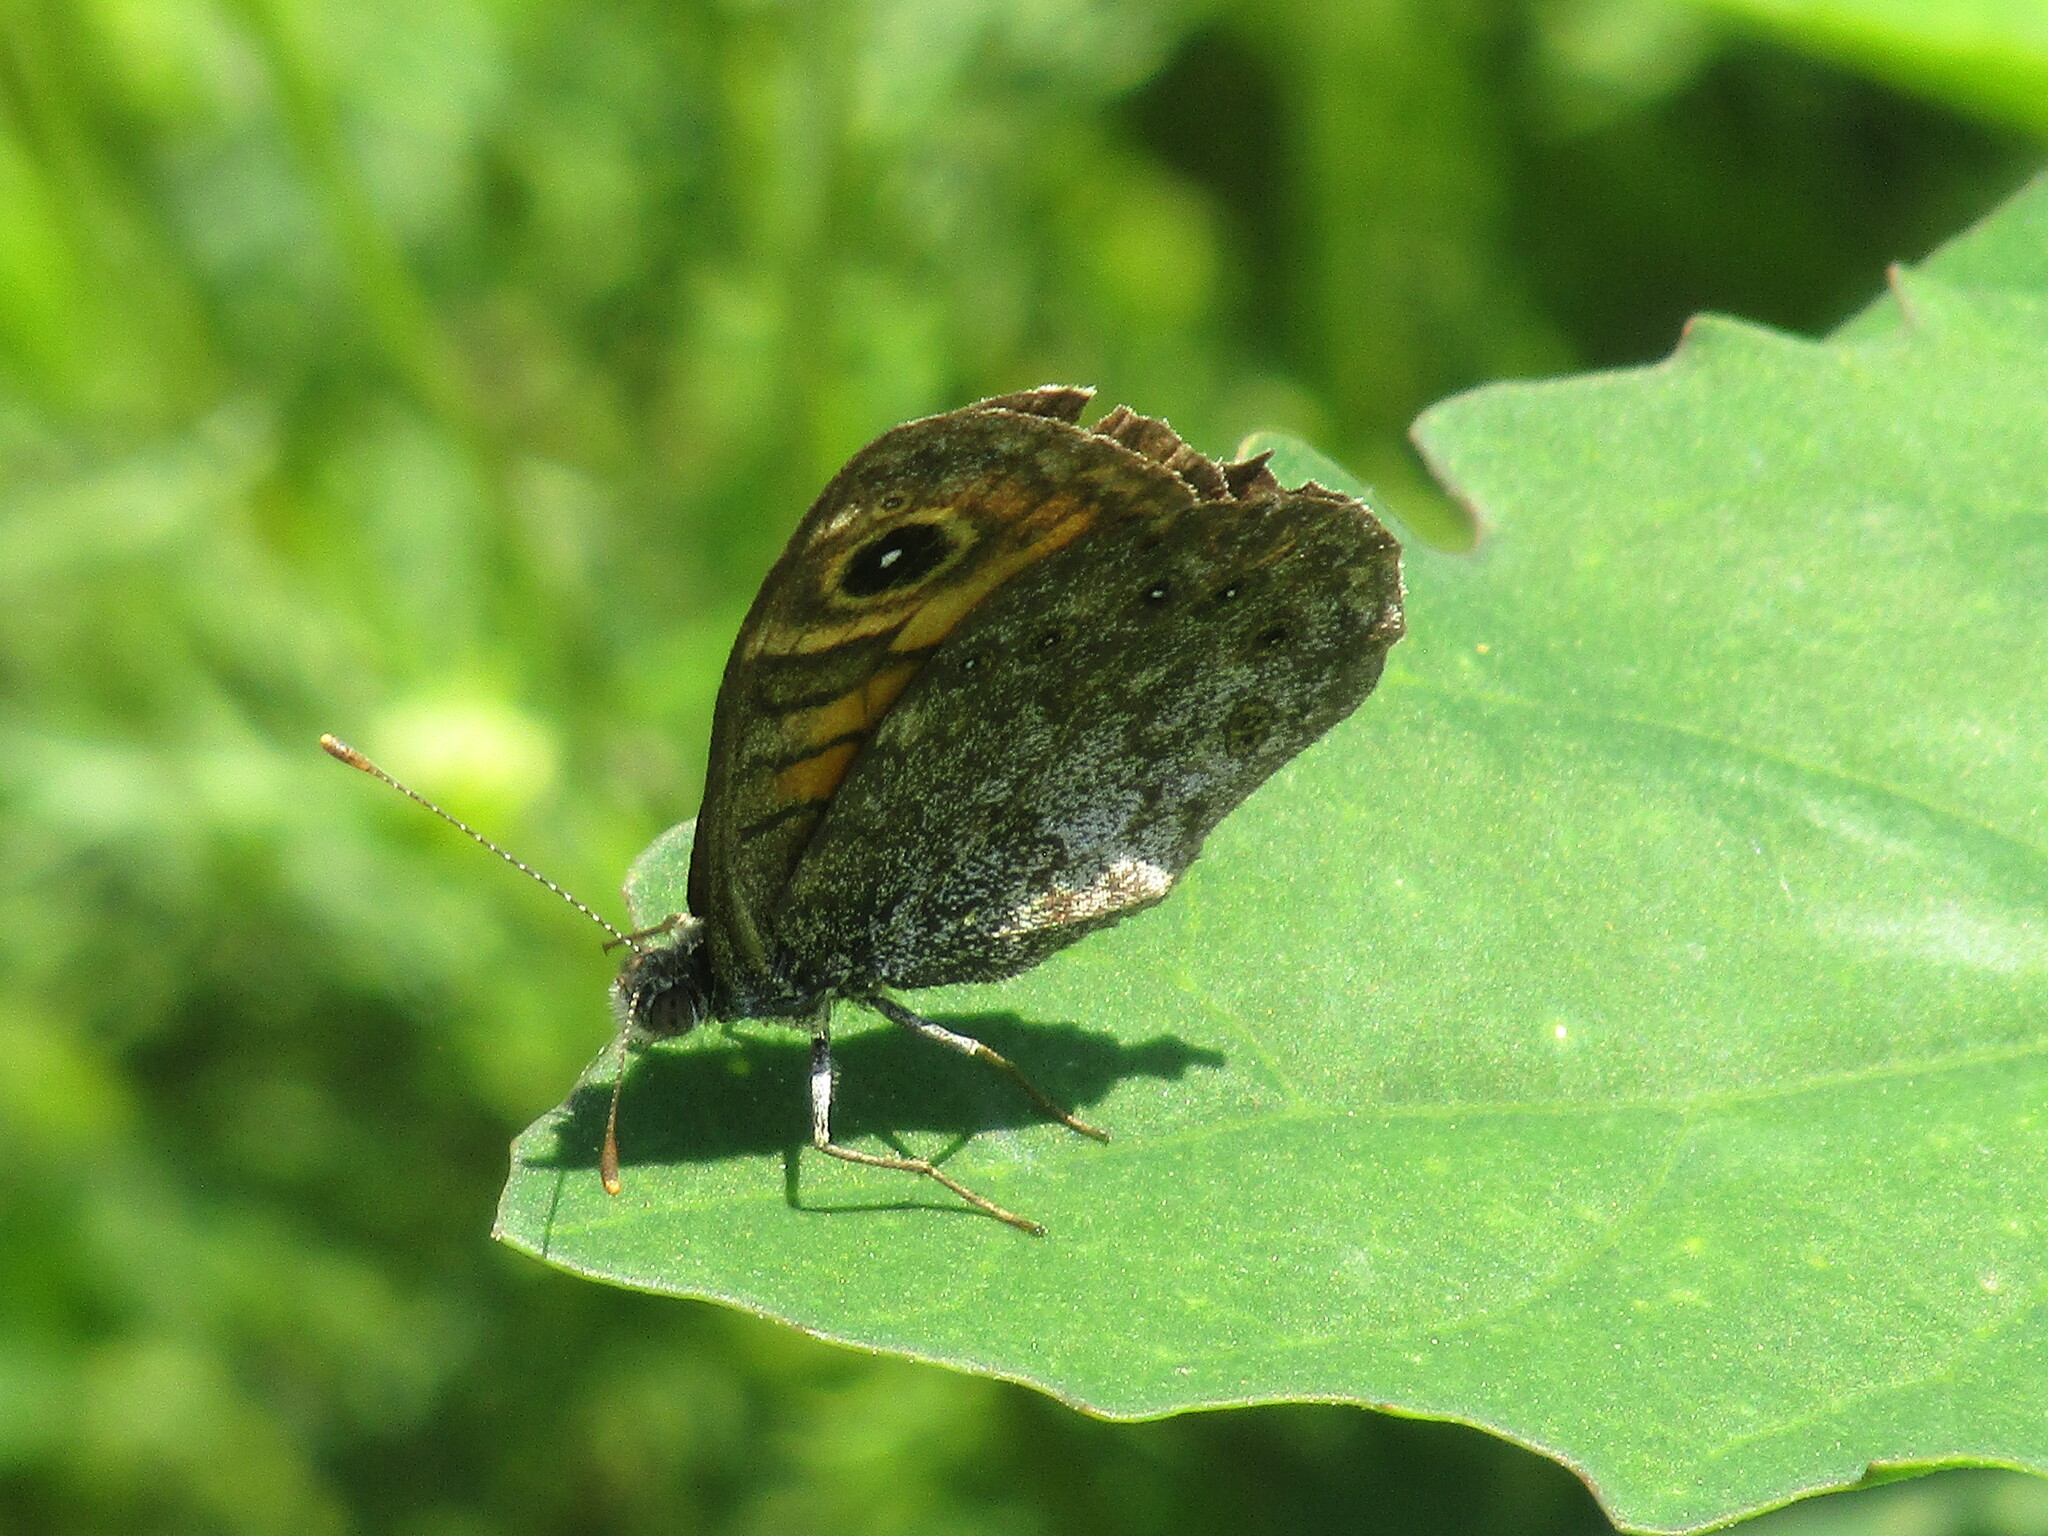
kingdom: Animalia
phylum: Arthropoda
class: Insecta
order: Lepidoptera
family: Nymphalidae
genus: Pararge
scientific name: Pararge Lasiommata megera
